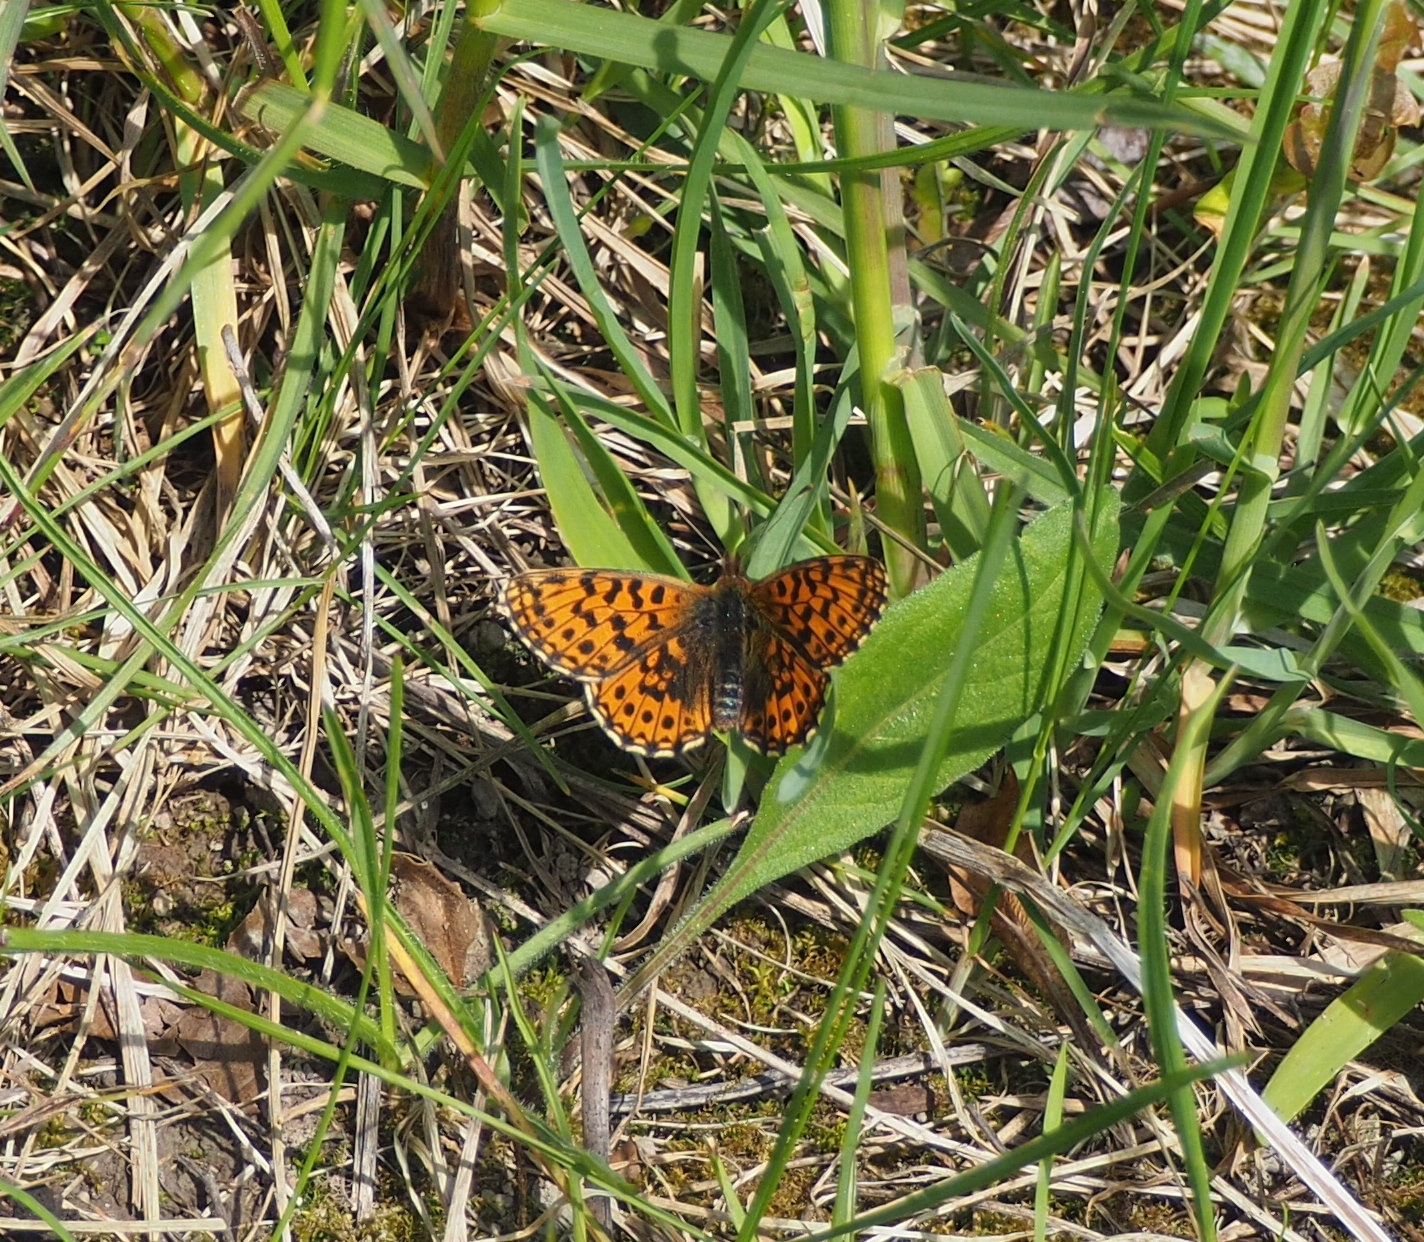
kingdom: Animalia
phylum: Arthropoda
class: Insecta
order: Lepidoptera
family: Nymphalidae
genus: Boloria
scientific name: Boloria dia
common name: Weaver's fritillary
